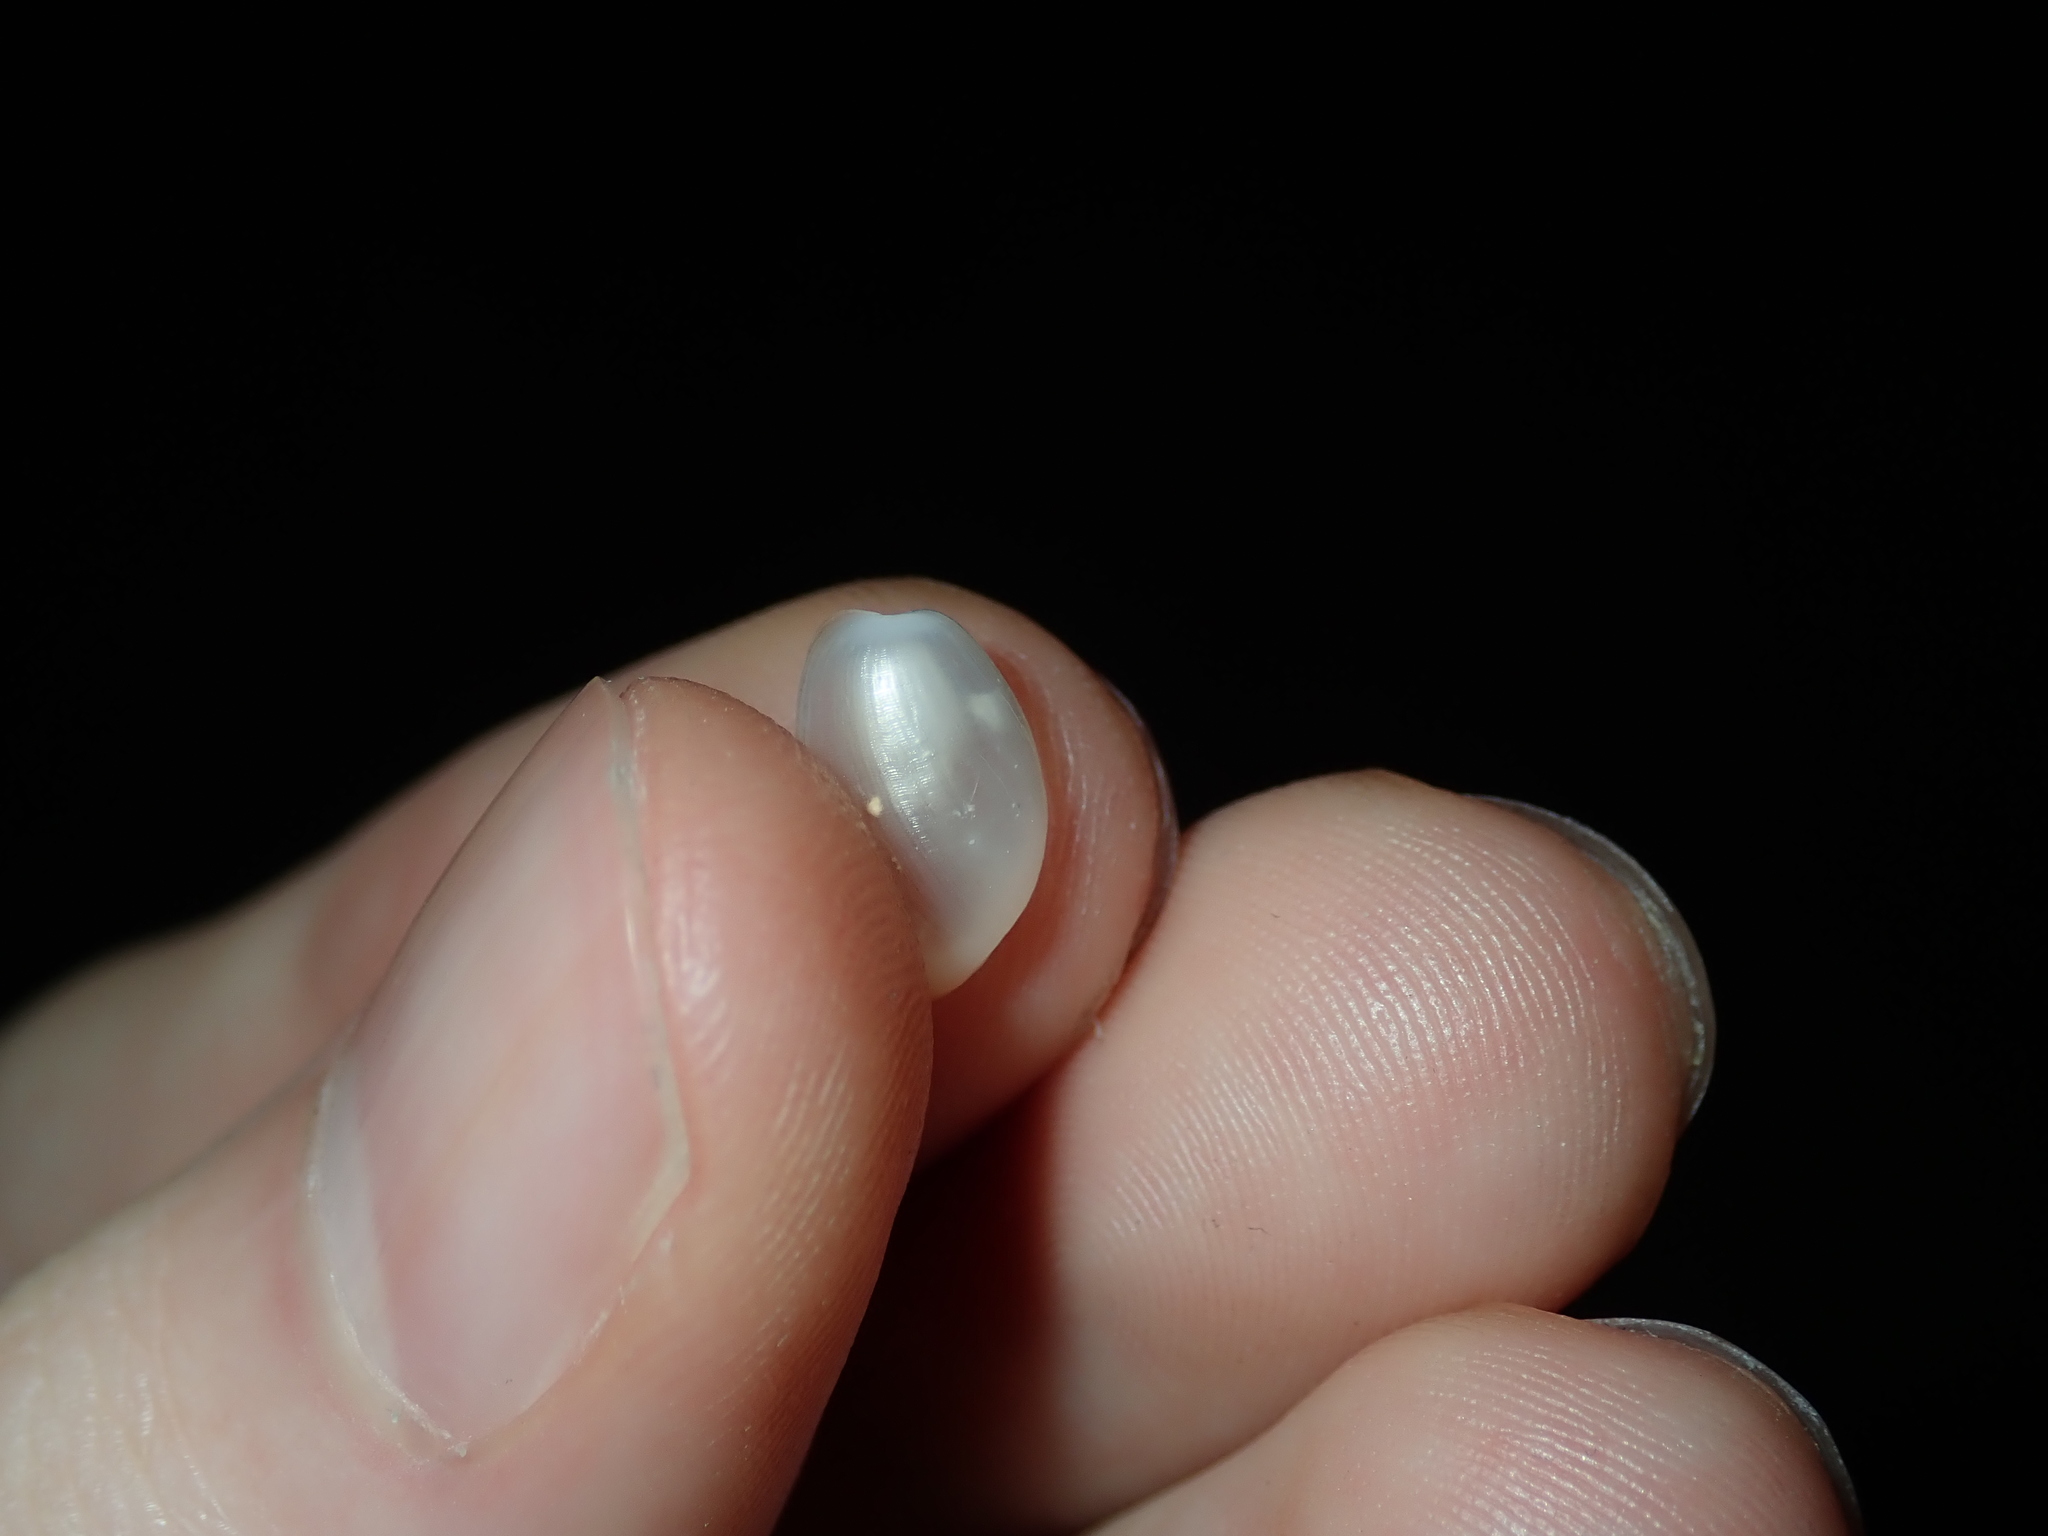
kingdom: Animalia
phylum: Mollusca
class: Gastropoda
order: Cephalaspidea
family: Haminoeidae
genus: Haloa
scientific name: Haloa wallisii
